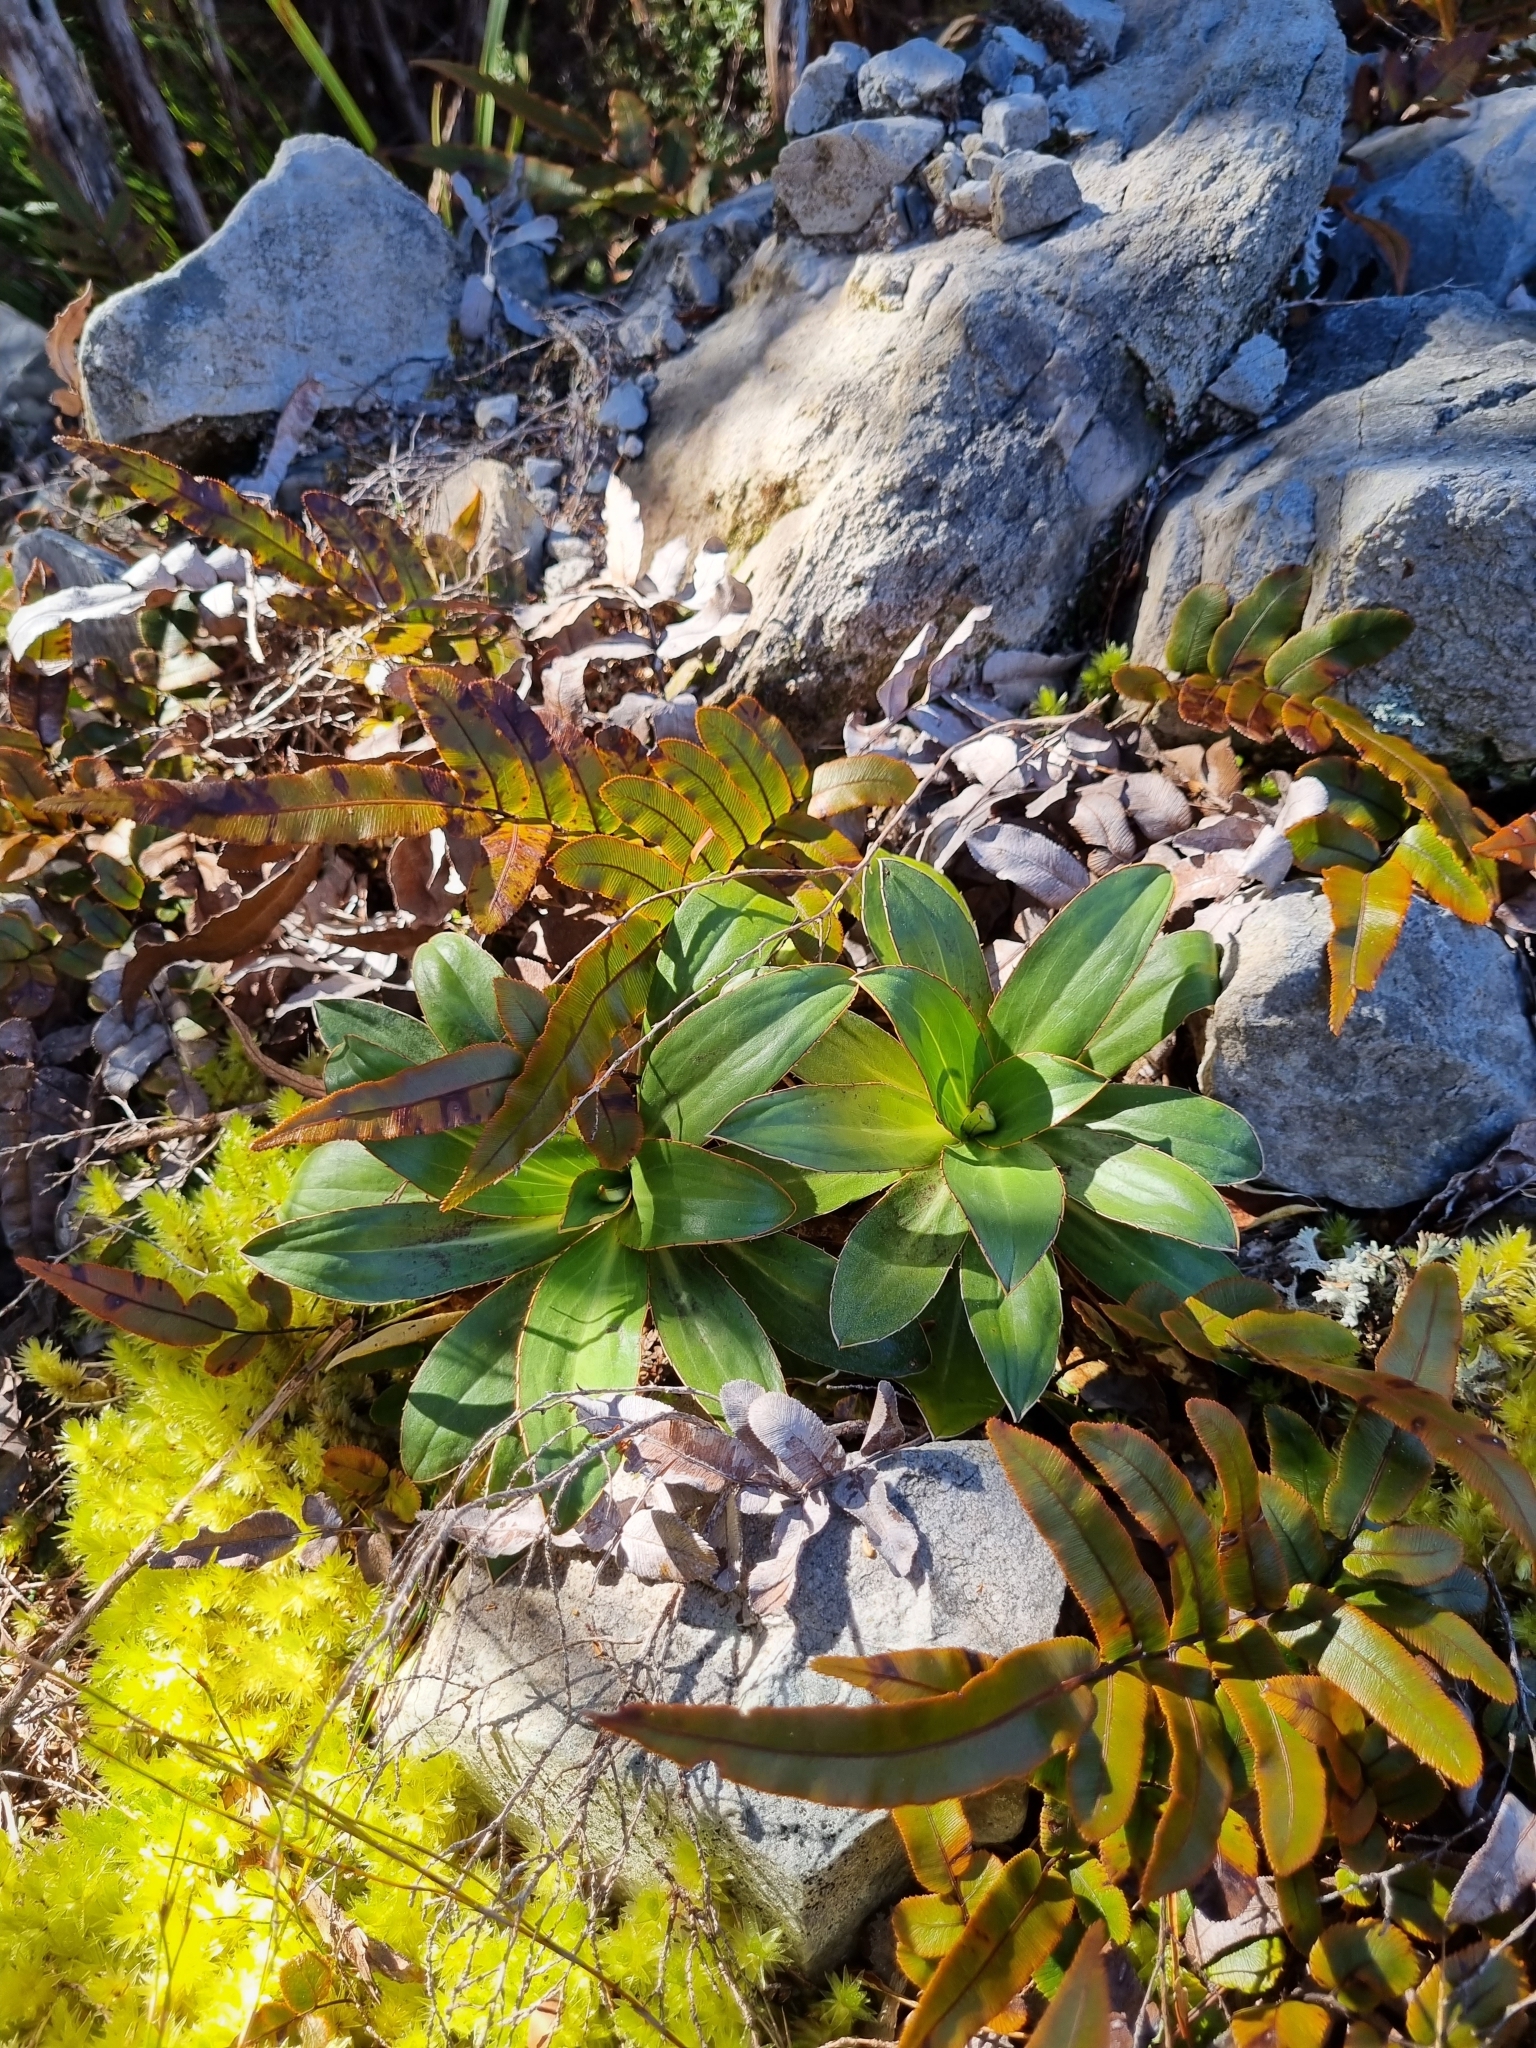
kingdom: Plantae
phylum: Tracheophyta
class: Magnoliopsida
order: Asterales
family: Asteraceae
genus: Celmisia
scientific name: Celmisia dallii
